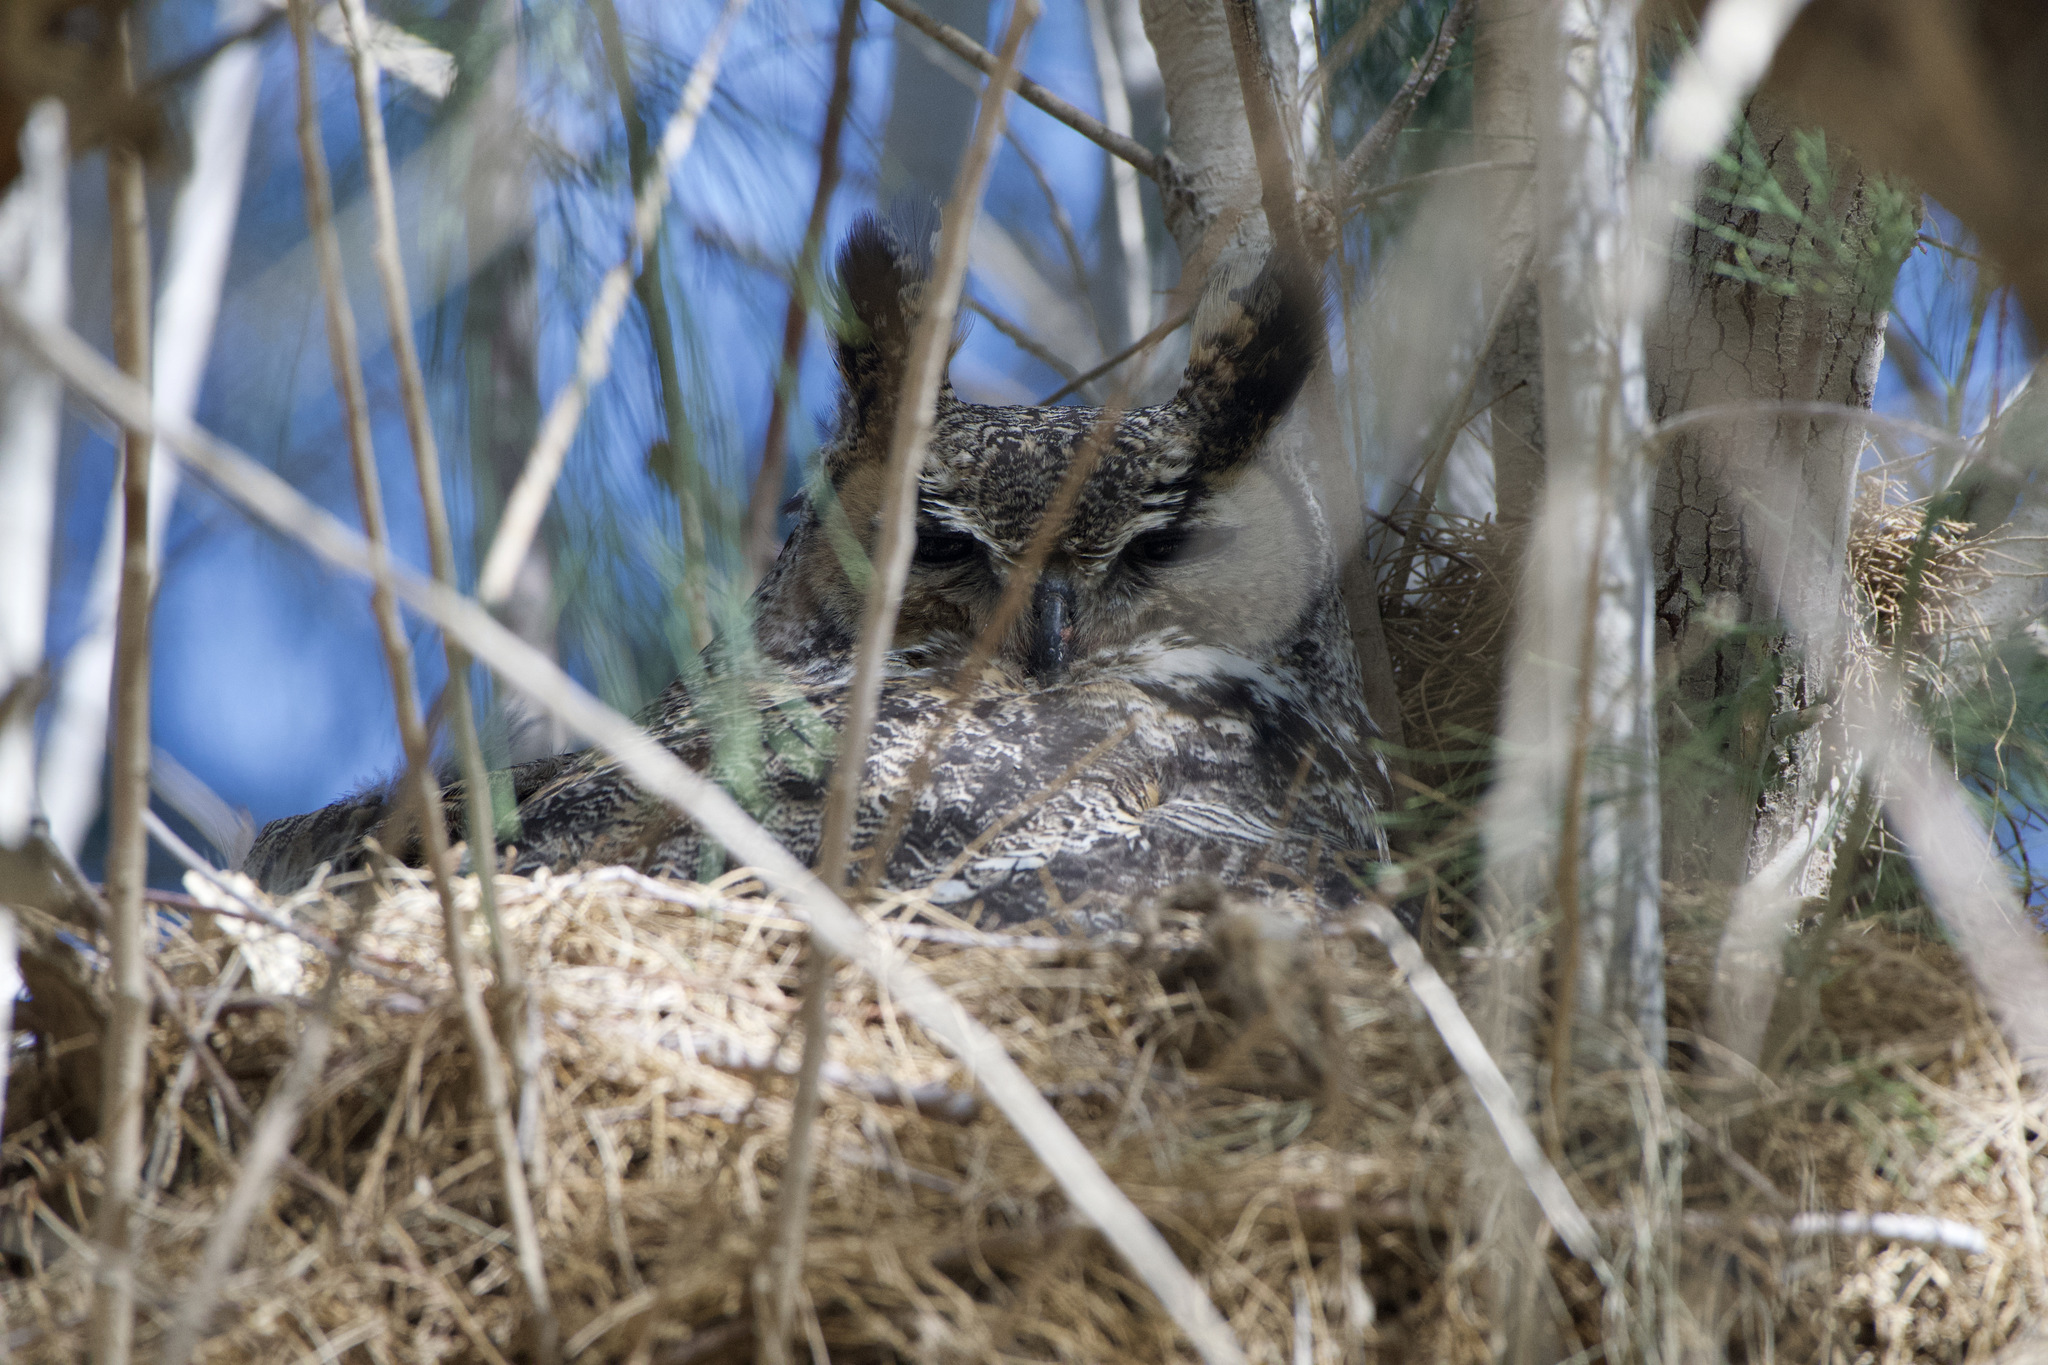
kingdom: Animalia
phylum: Chordata
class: Aves
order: Strigiformes
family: Strigidae
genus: Bubo
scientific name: Bubo virginianus
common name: Great horned owl
